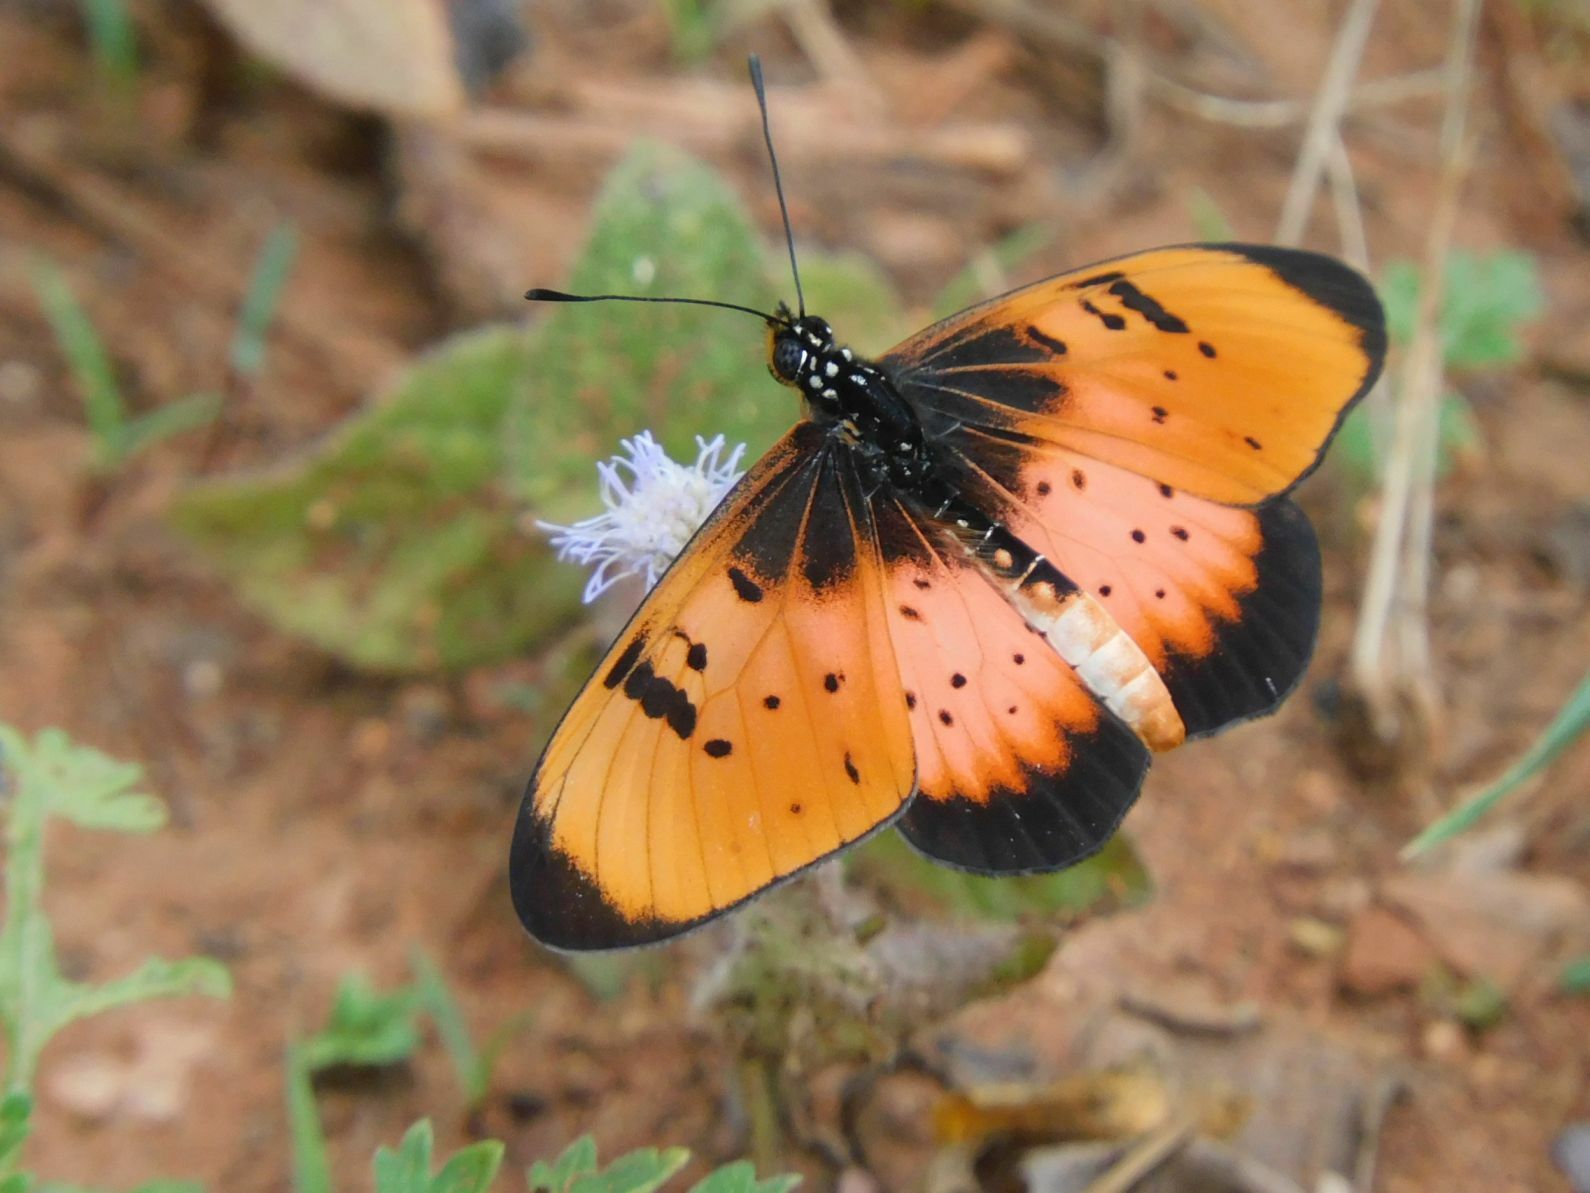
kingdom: Animalia
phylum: Arthropoda
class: Insecta
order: Lepidoptera
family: Nymphalidae
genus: Stephenia
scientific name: Stephenia
